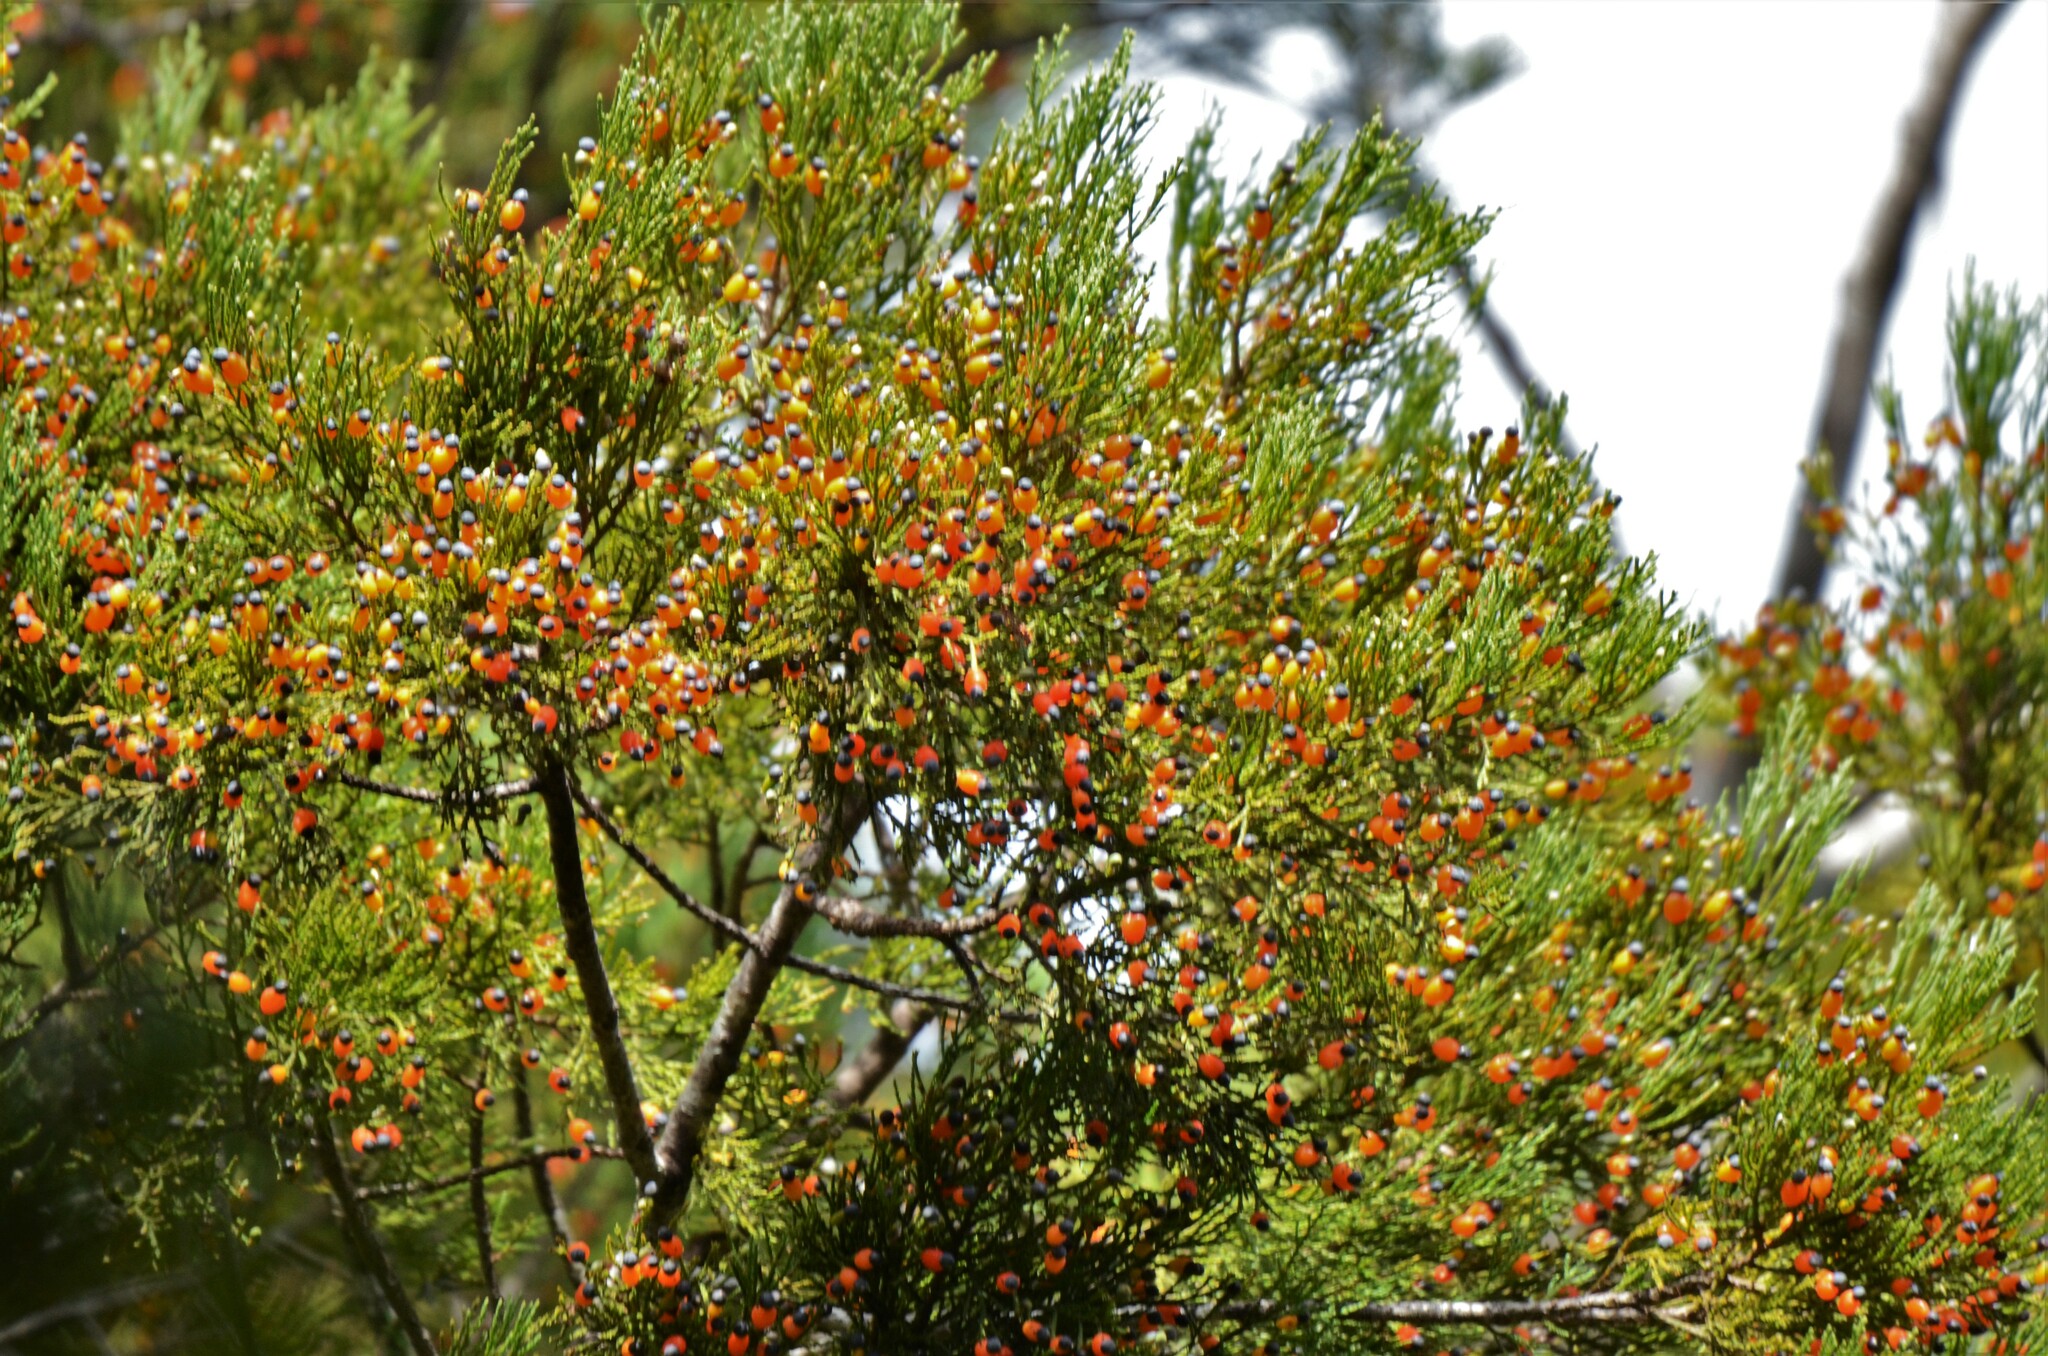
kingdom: Plantae
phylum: Tracheophyta
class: Pinopsida
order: Pinales
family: Podocarpaceae
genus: Dacrycarpus
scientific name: Dacrycarpus dacrydioides
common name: White pine
